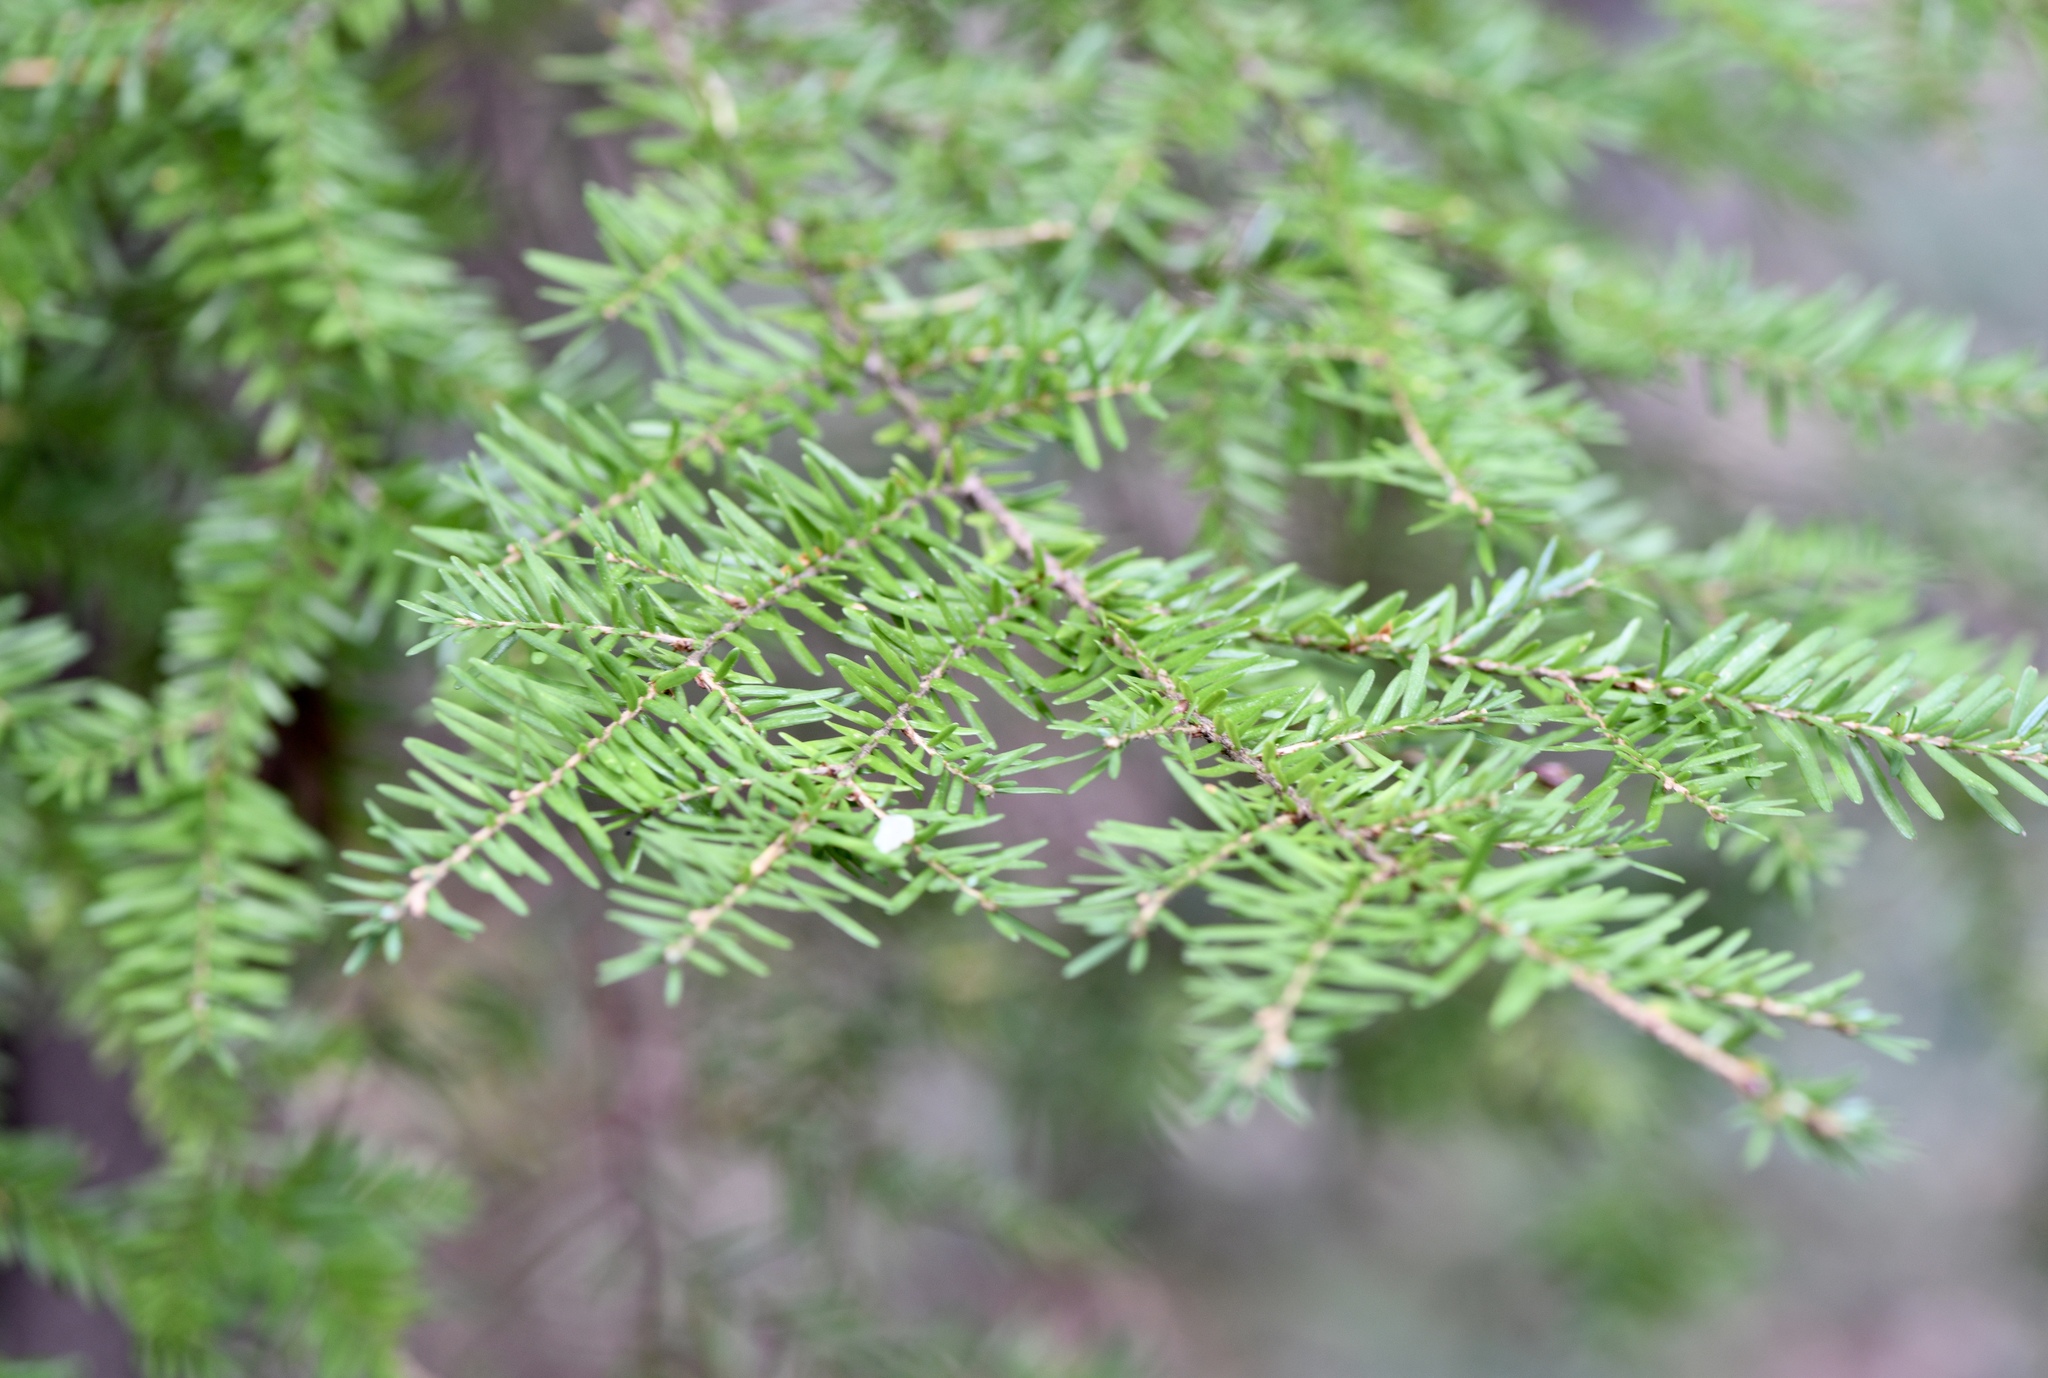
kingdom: Plantae
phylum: Tracheophyta
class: Pinopsida
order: Pinales
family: Pinaceae
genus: Tsuga
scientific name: Tsuga heterophylla
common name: Western hemlock
